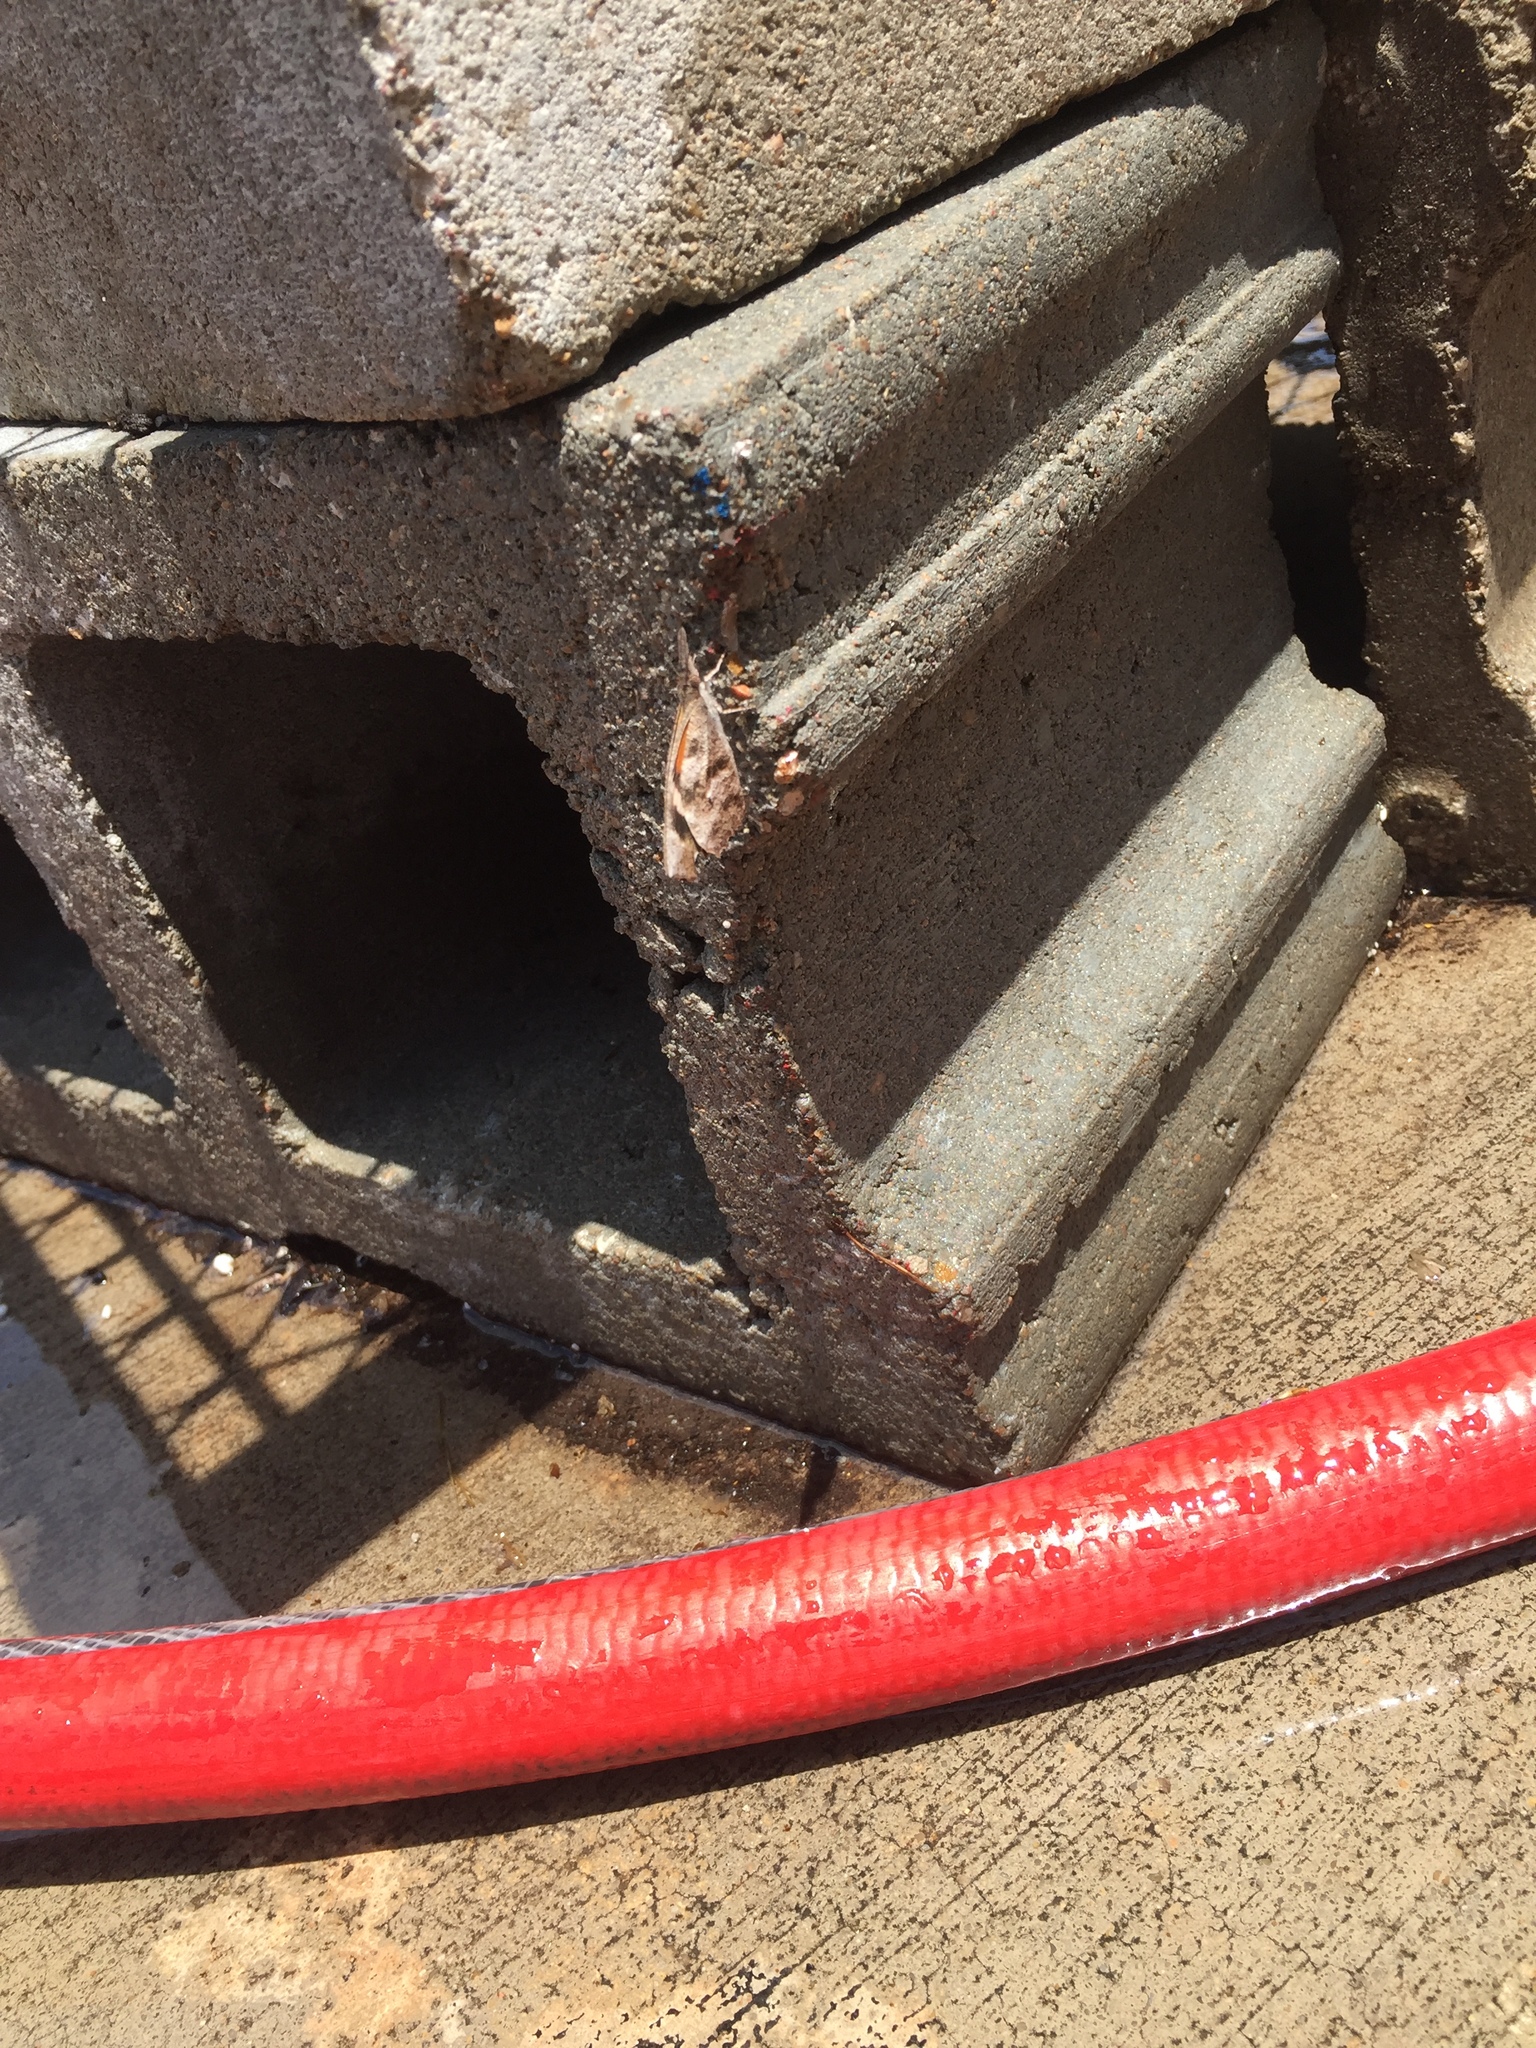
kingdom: Animalia
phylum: Arthropoda
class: Insecta
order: Lepidoptera
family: Nymphalidae
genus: Libytheana
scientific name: Libytheana carinenta
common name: American snout
